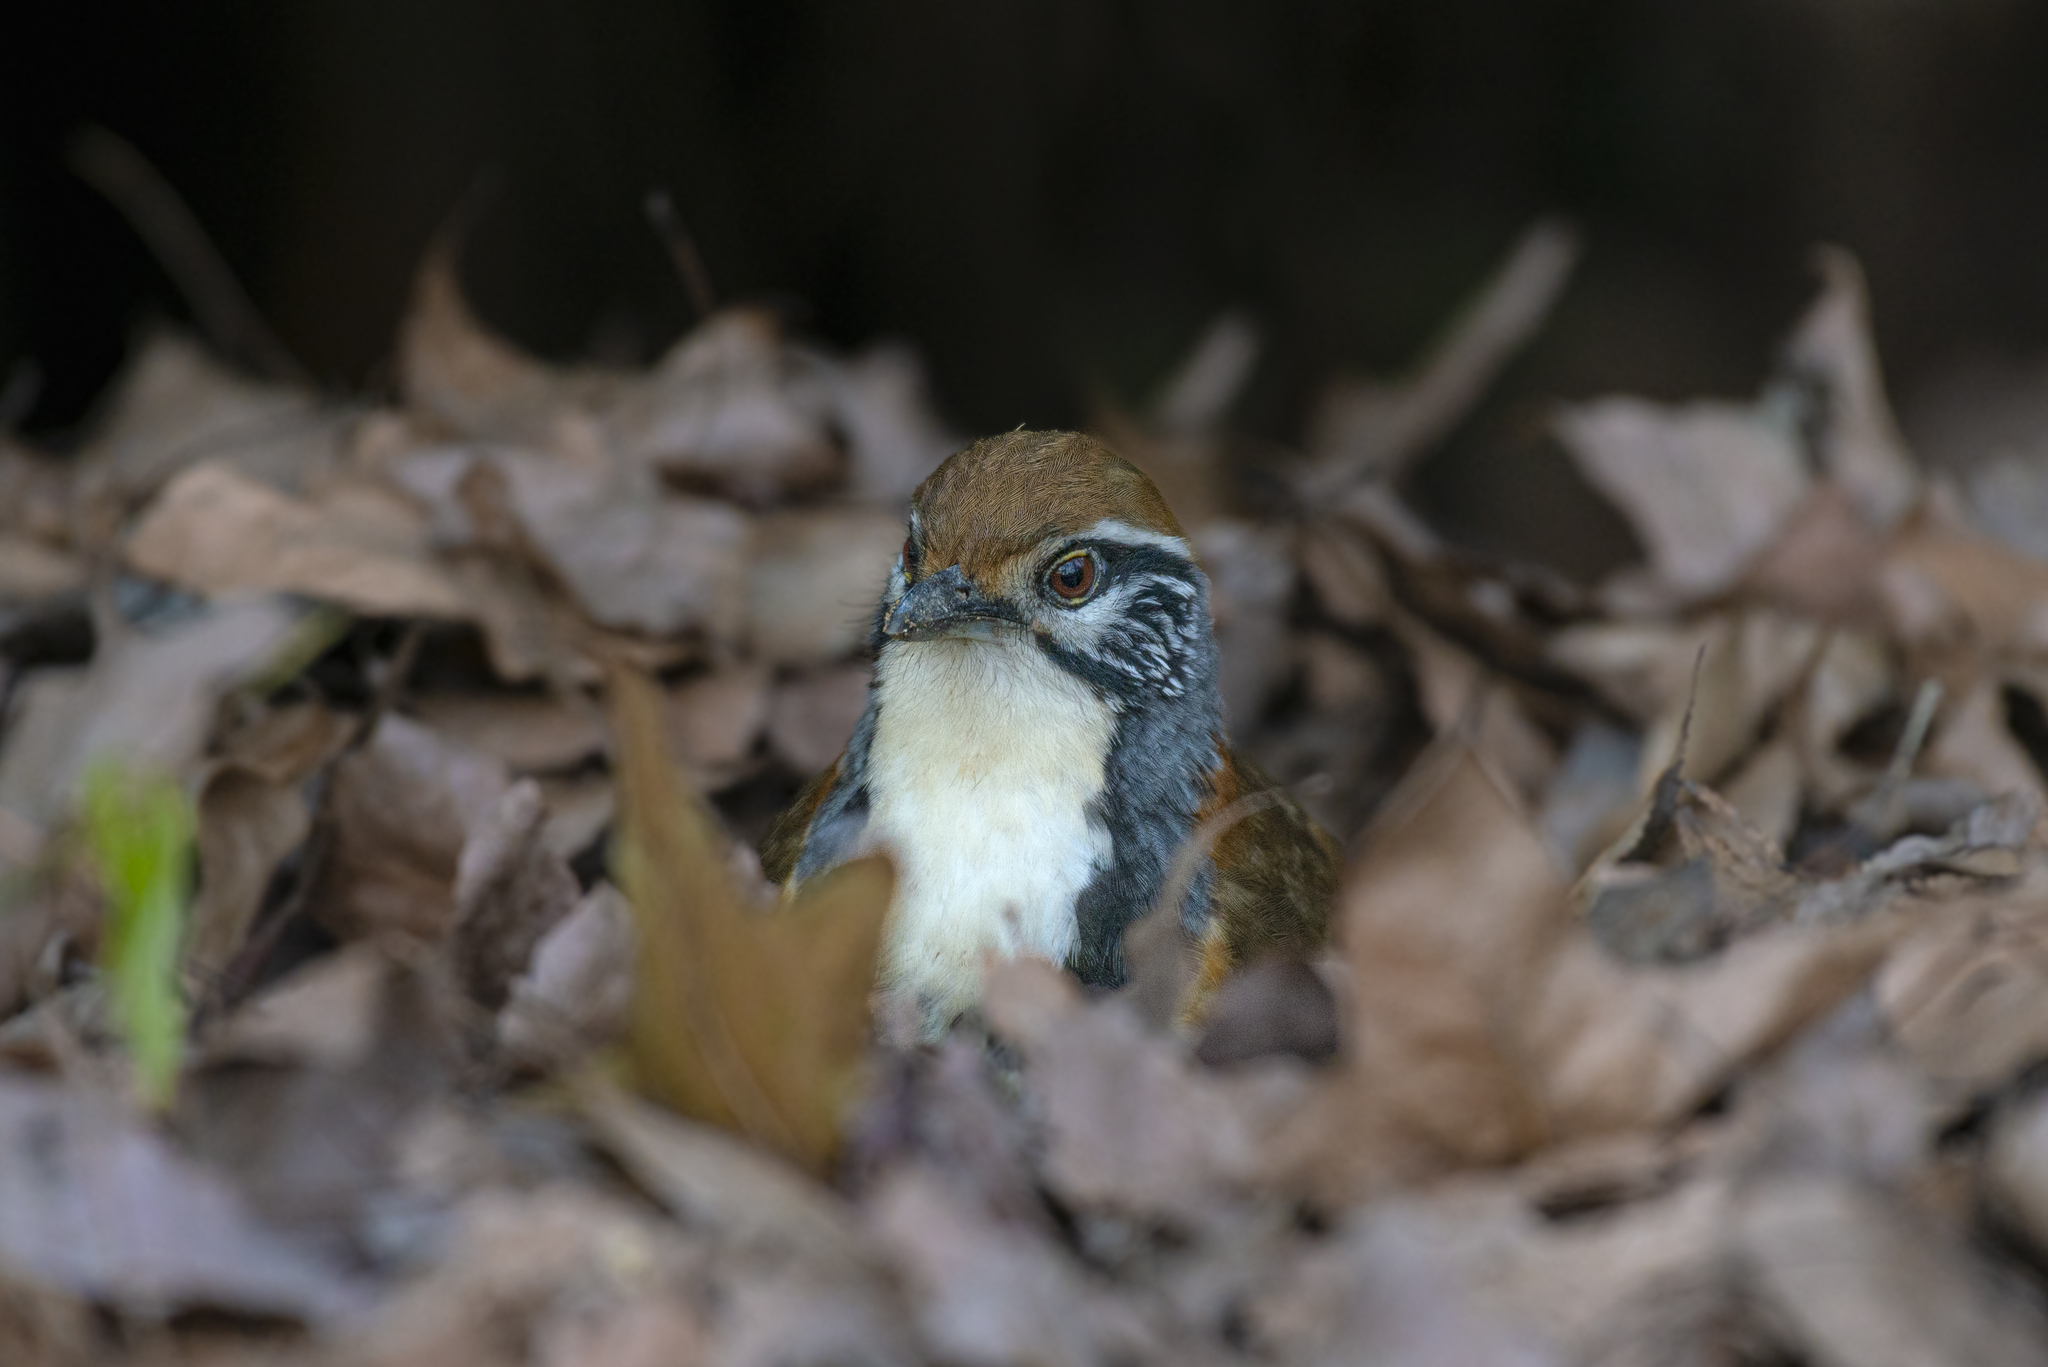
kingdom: Animalia
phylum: Chordata
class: Aves
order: Passeriformes
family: Leiothrichidae
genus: Garrulax
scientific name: Garrulax pectoralis
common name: Greater necklaced laughingthrush
